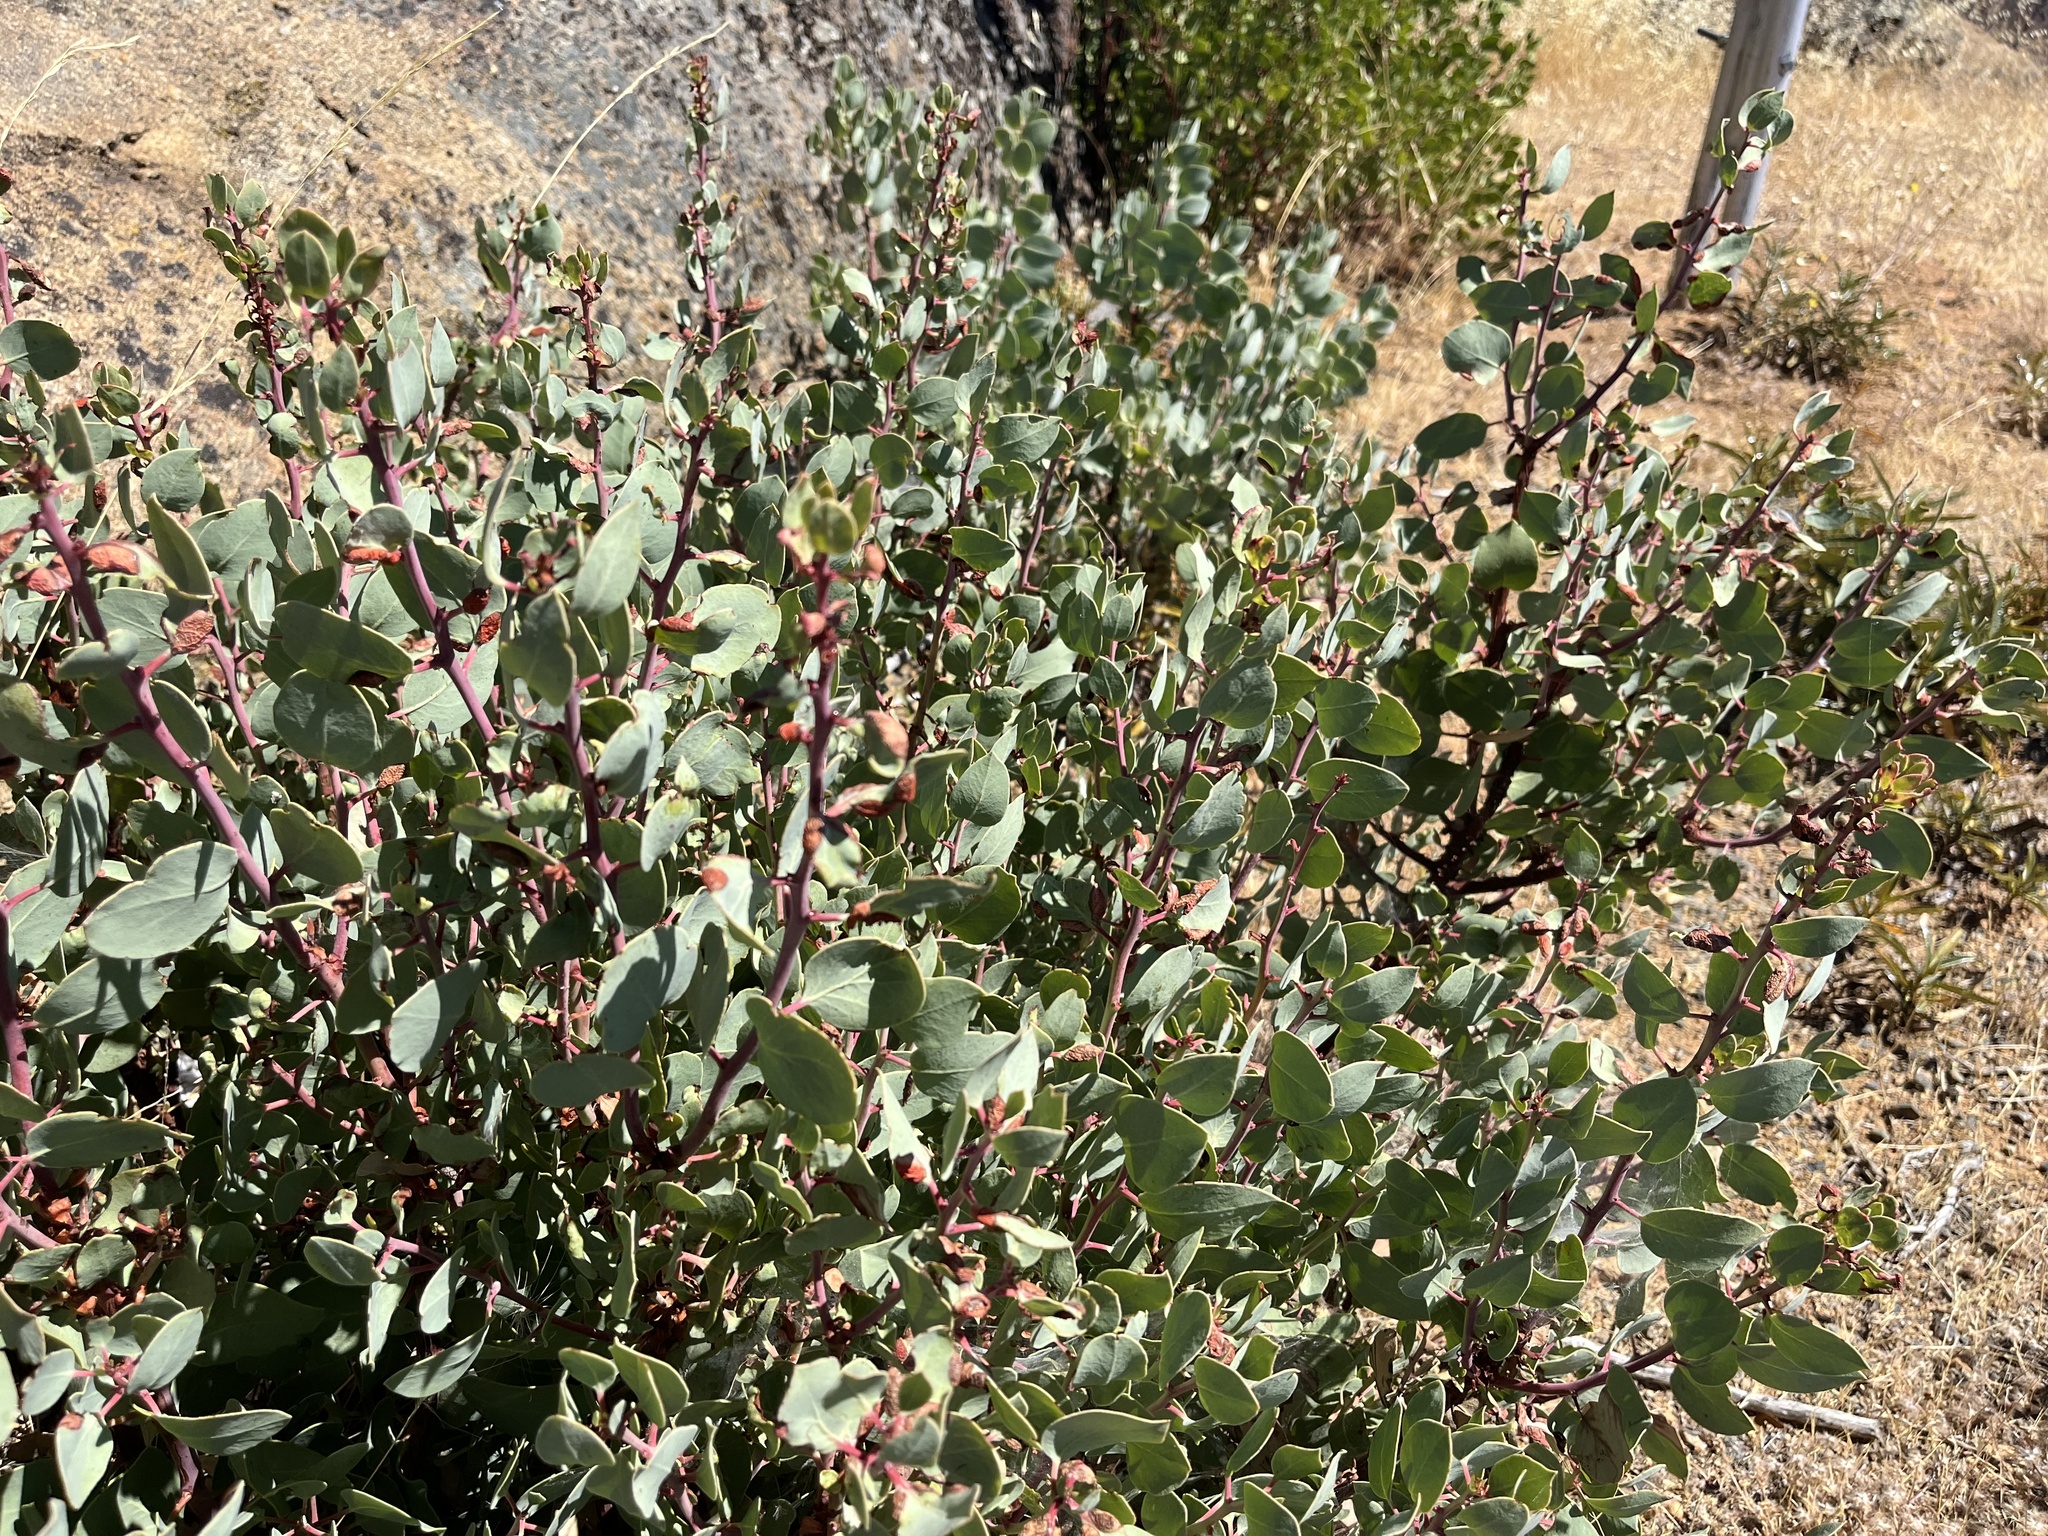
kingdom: Plantae
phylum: Tracheophyta
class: Magnoliopsida
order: Ericales
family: Ericaceae
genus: Arctostaphylos
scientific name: Arctostaphylos viscida
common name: White-leaf manzanita
